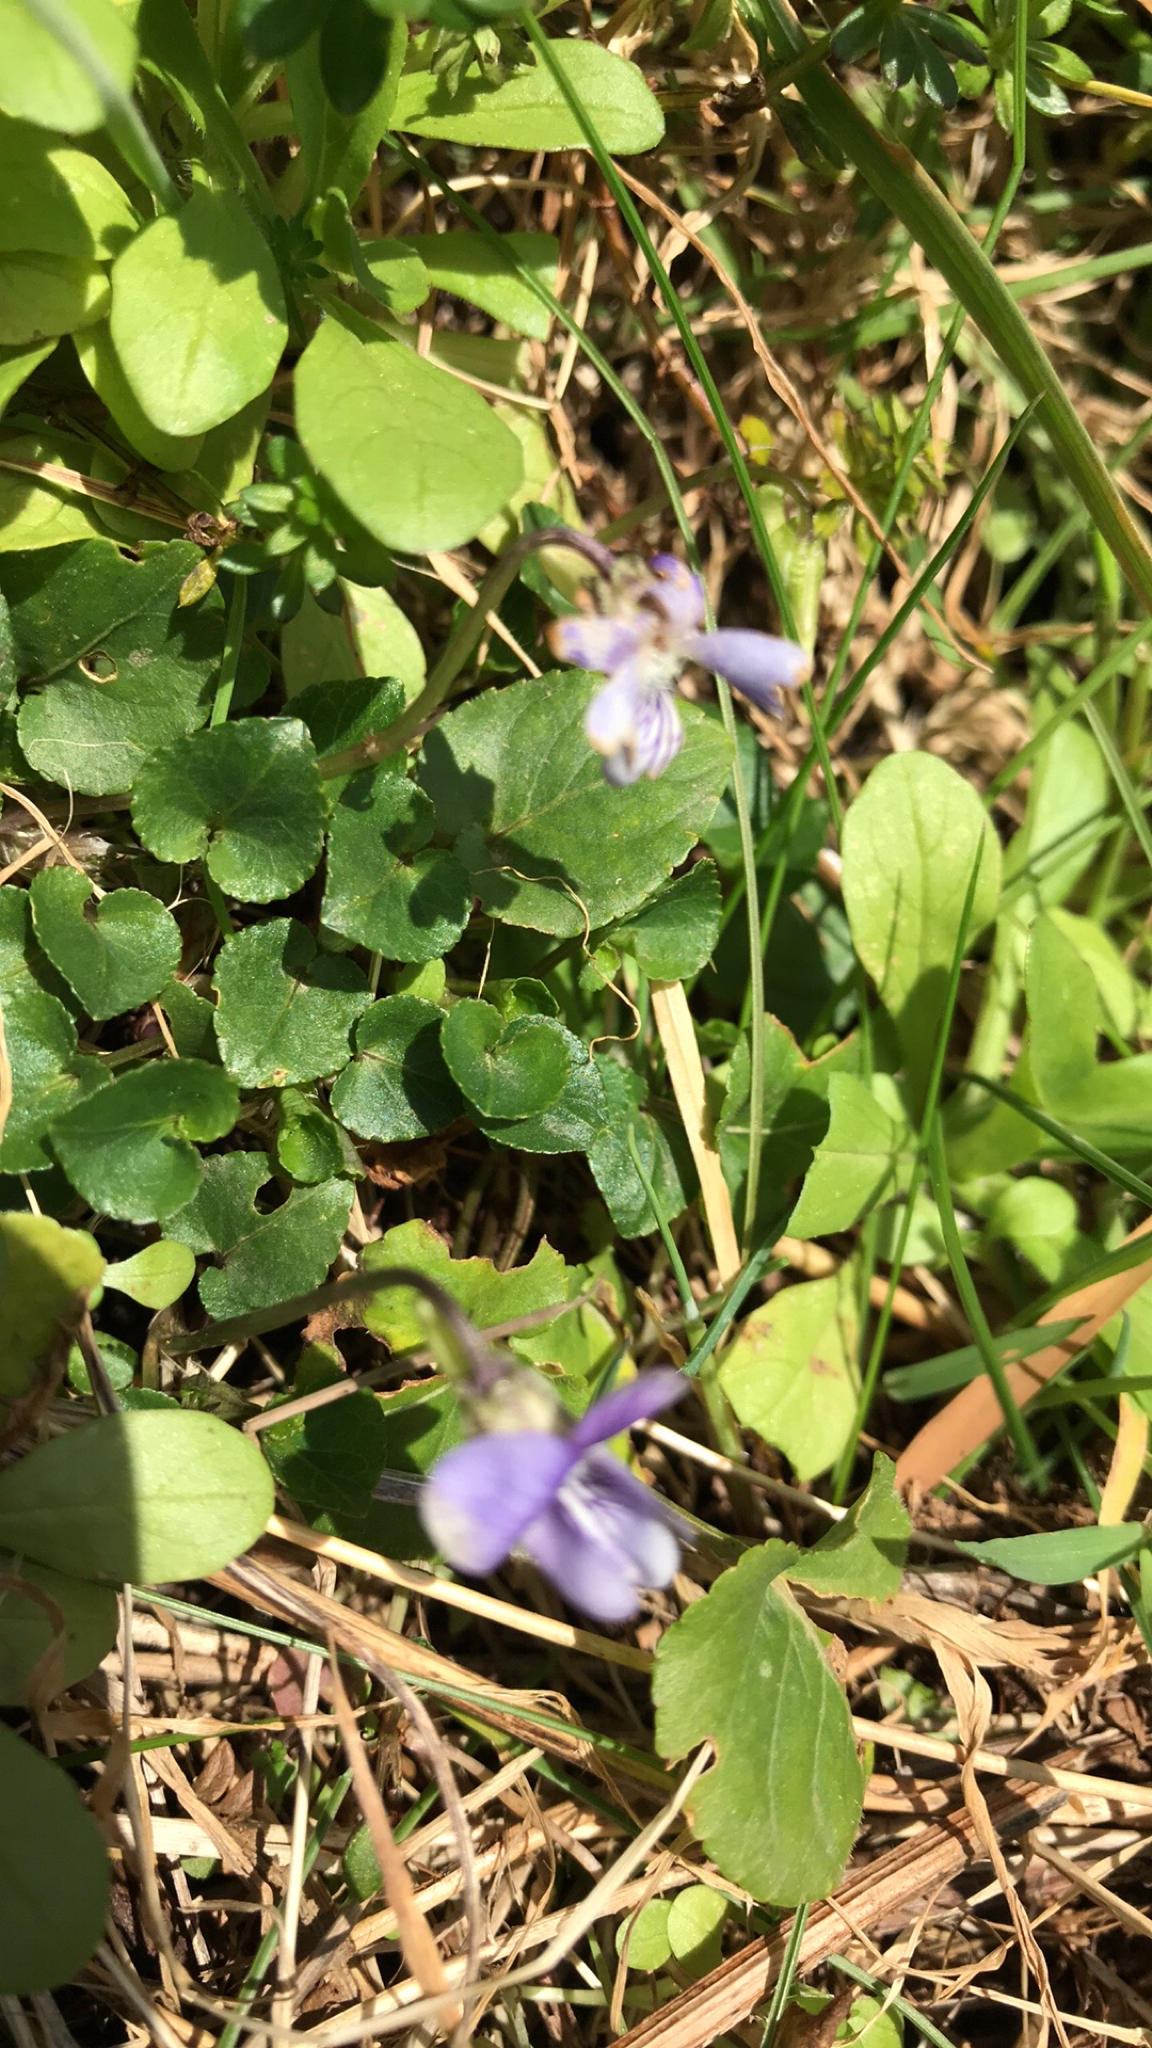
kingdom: Plantae
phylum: Tracheophyta
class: Magnoliopsida
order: Malpighiales
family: Violaceae
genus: Viola
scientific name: Viola riviniana
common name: Common dog-violet
